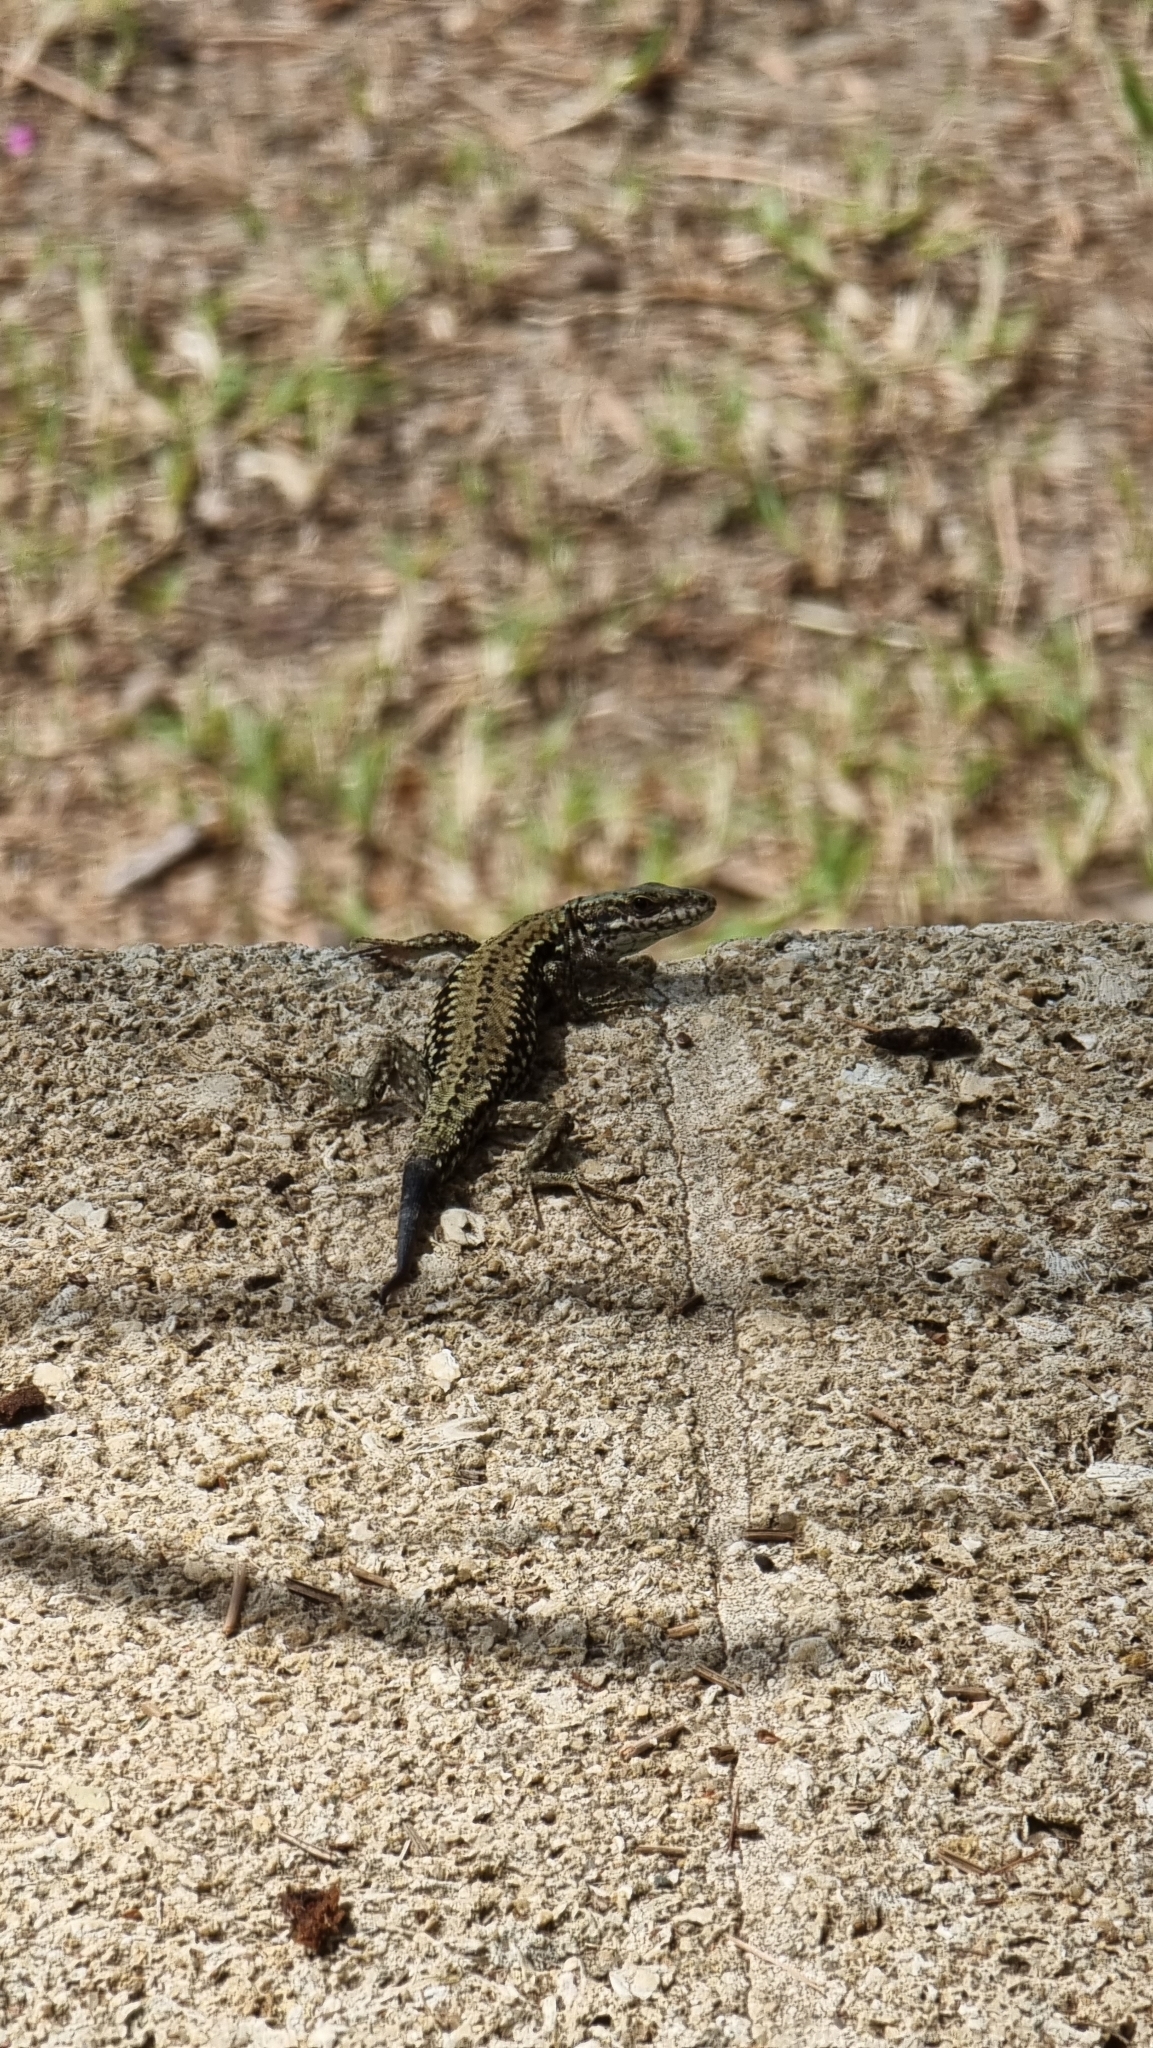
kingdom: Animalia
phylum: Chordata
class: Squamata
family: Lacertidae
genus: Podarcis
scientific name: Podarcis muralis
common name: Common wall lizard
